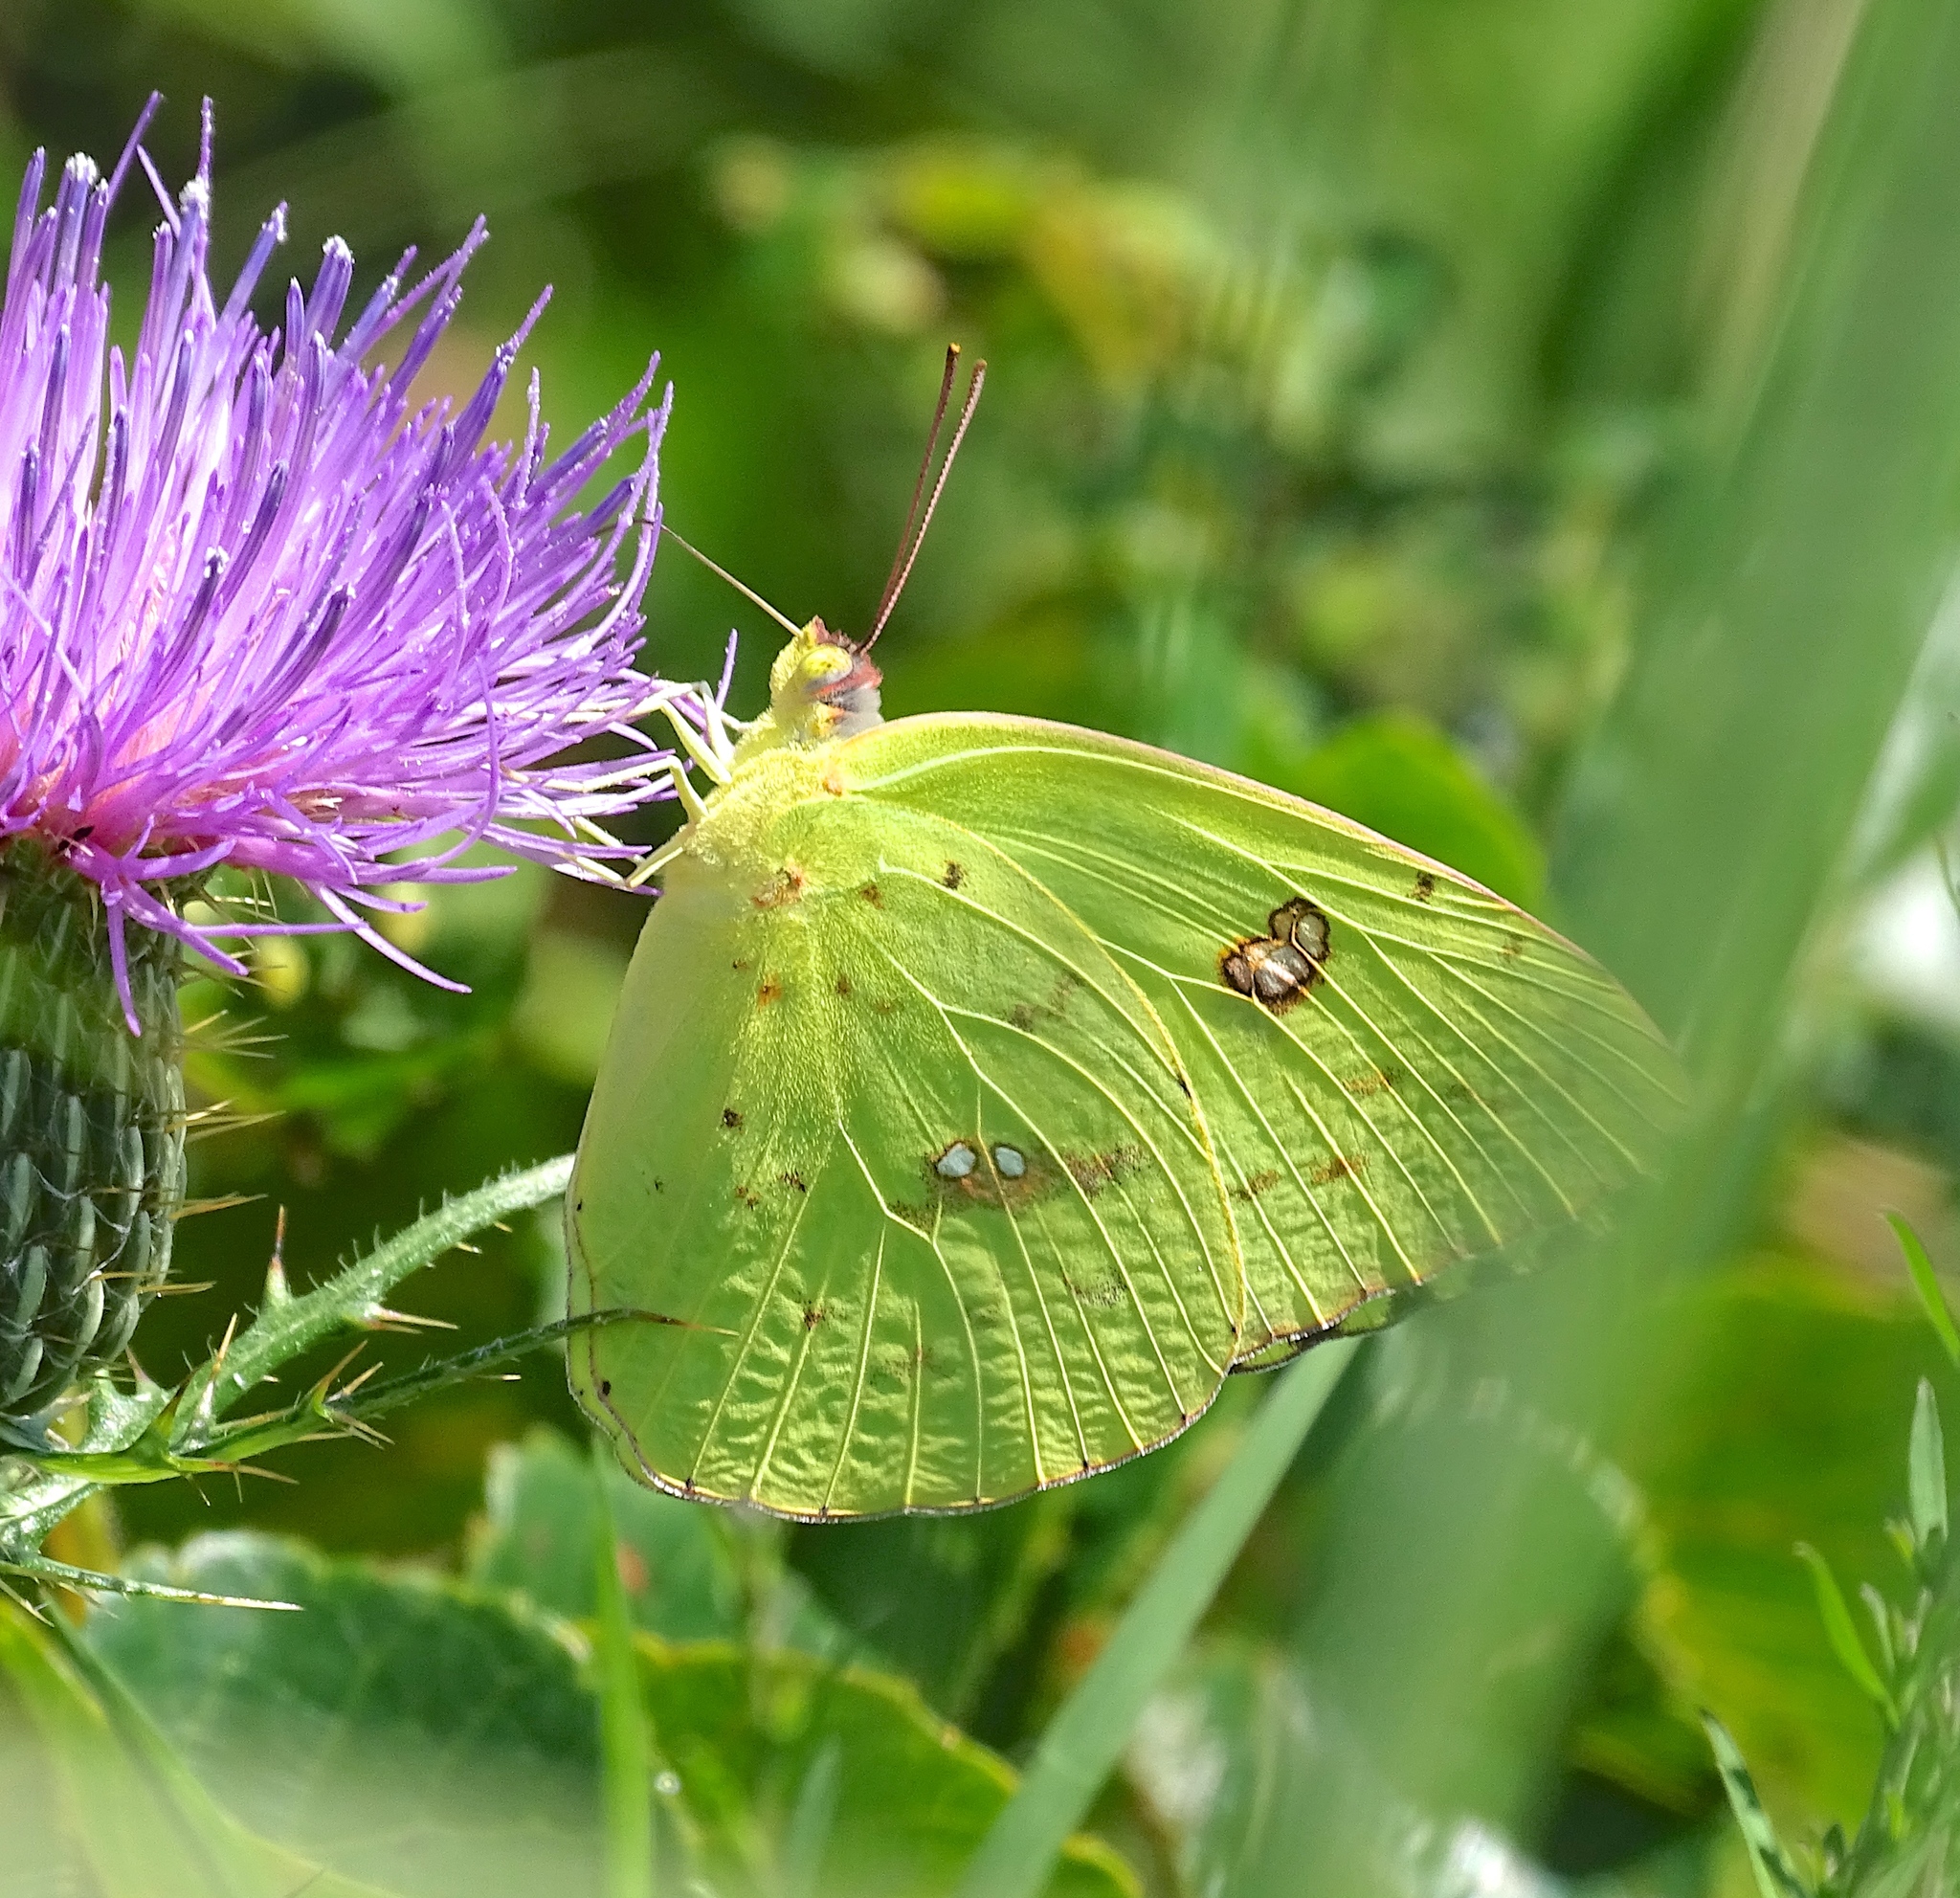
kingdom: Animalia
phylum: Arthropoda
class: Insecta
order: Lepidoptera
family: Pieridae
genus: Phoebis
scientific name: Phoebis sennae
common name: Cloudless sulphur
